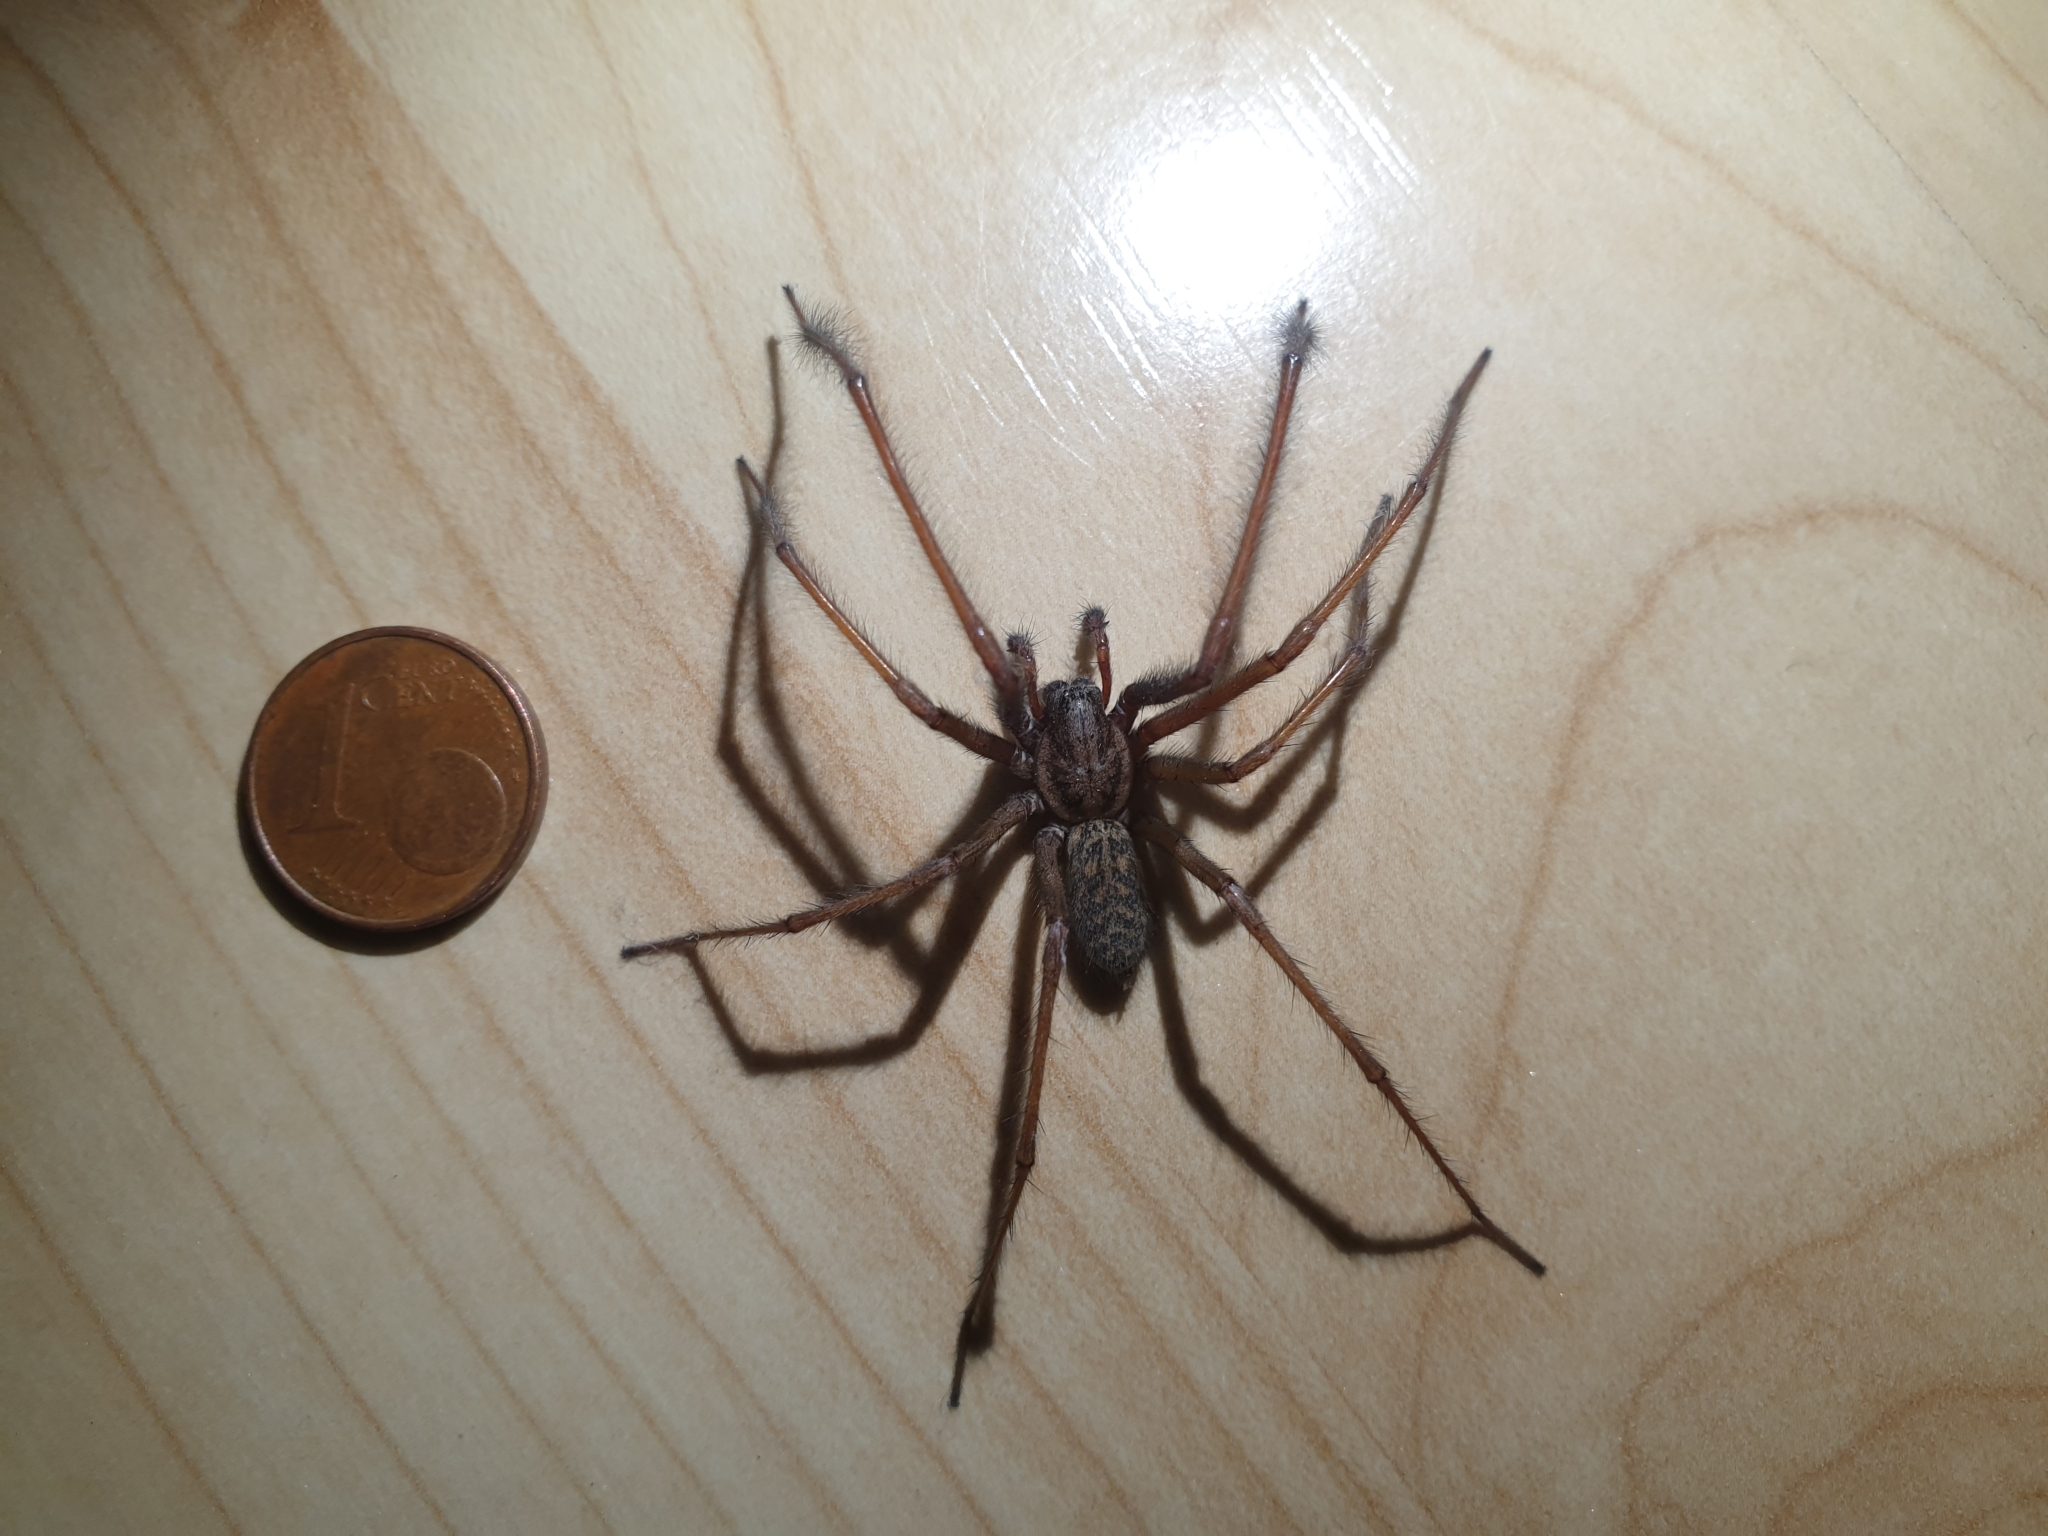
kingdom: Animalia
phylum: Arthropoda
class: Arachnida
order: Araneae
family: Agelenidae
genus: Eratigena
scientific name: Eratigena atrica
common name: Giant house spider
